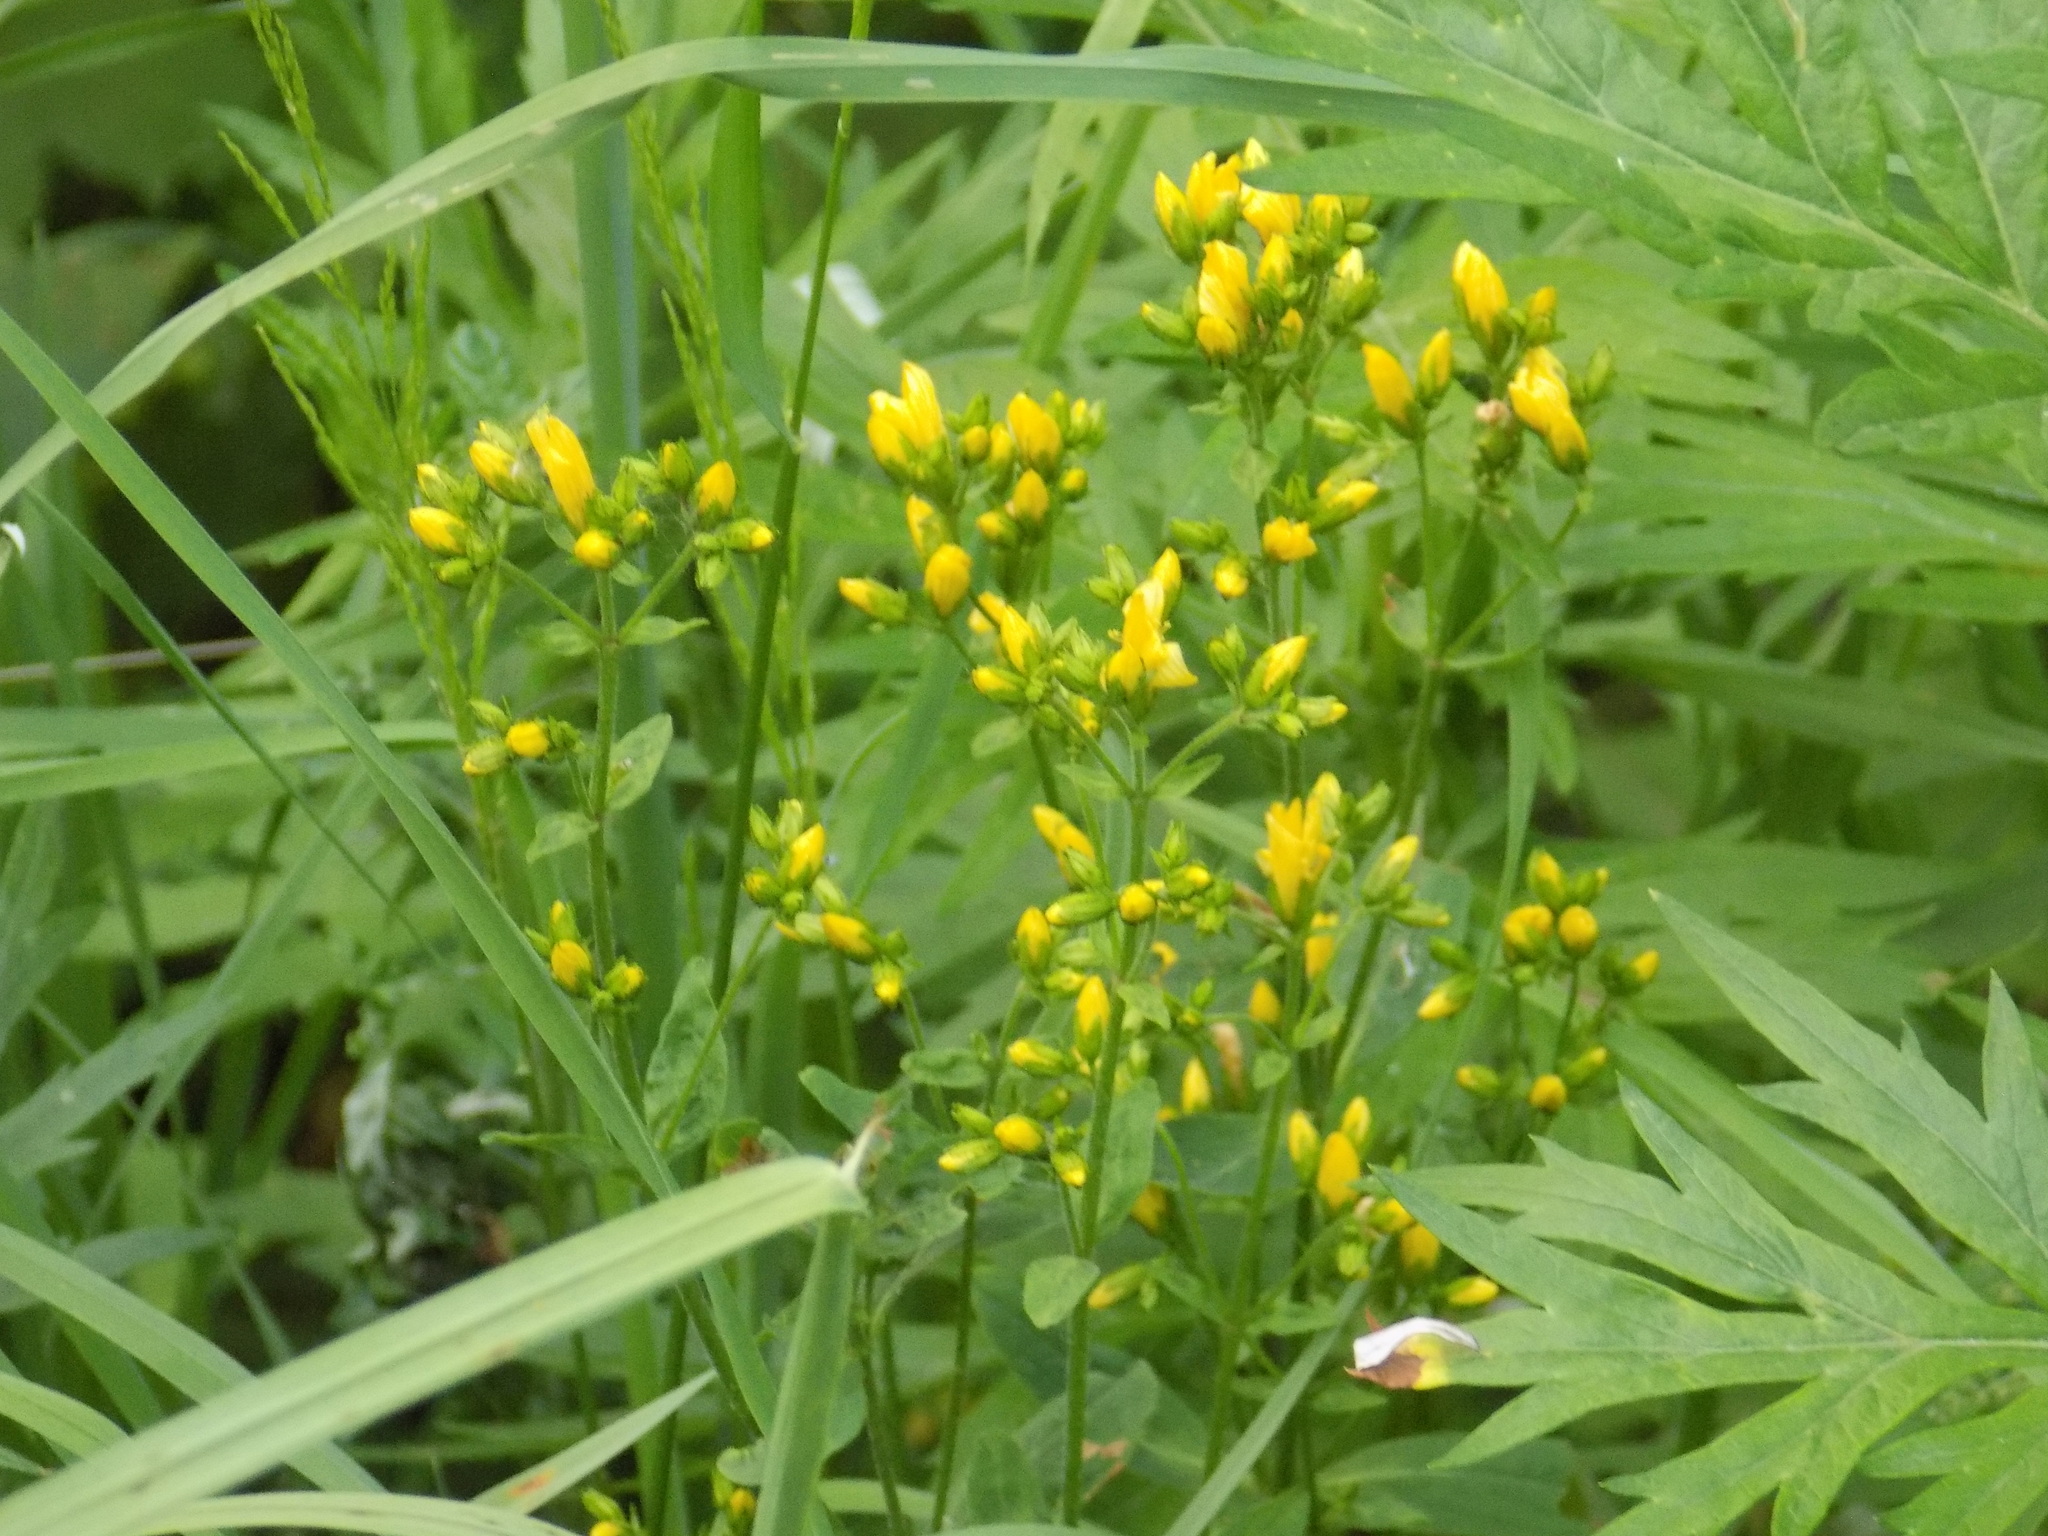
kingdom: Plantae
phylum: Tracheophyta
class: Magnoliopsida
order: Malpighiales
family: Hypericaceae
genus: Hypericum
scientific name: Hypericum hirsutum
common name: Hairy st. john's-wort
